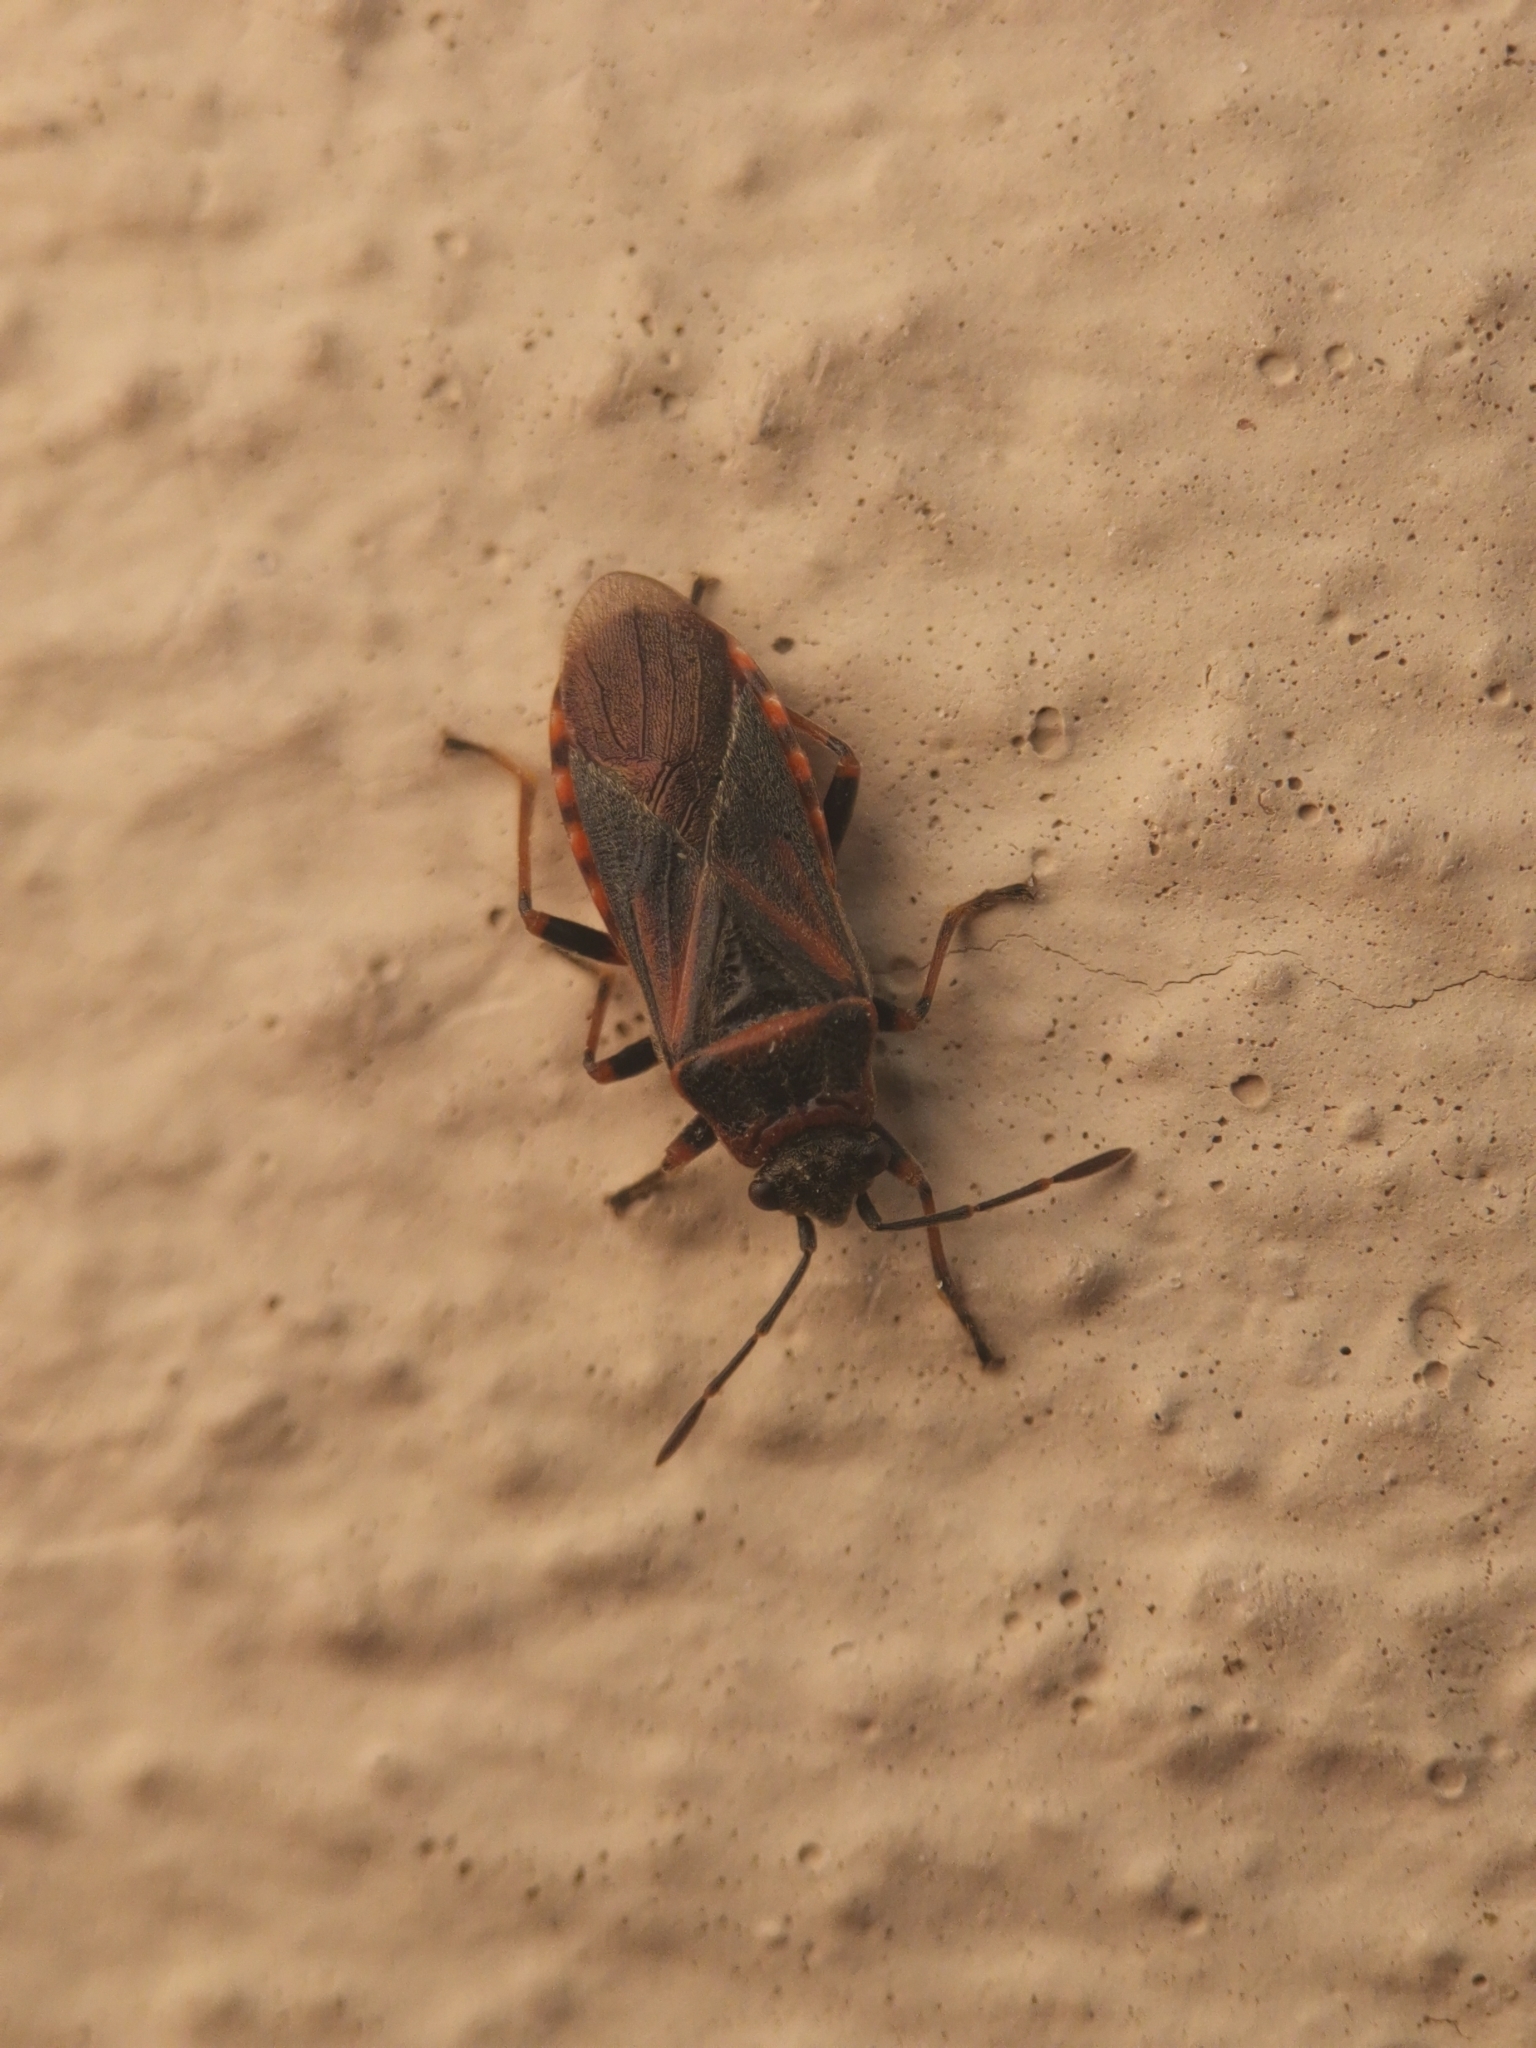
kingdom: Animalia
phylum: Arthropoda
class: Insecta
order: Hemiptera
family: Lygaeidae
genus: Arocatus
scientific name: Arocatus melanocephalus
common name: Lygaeid bug
